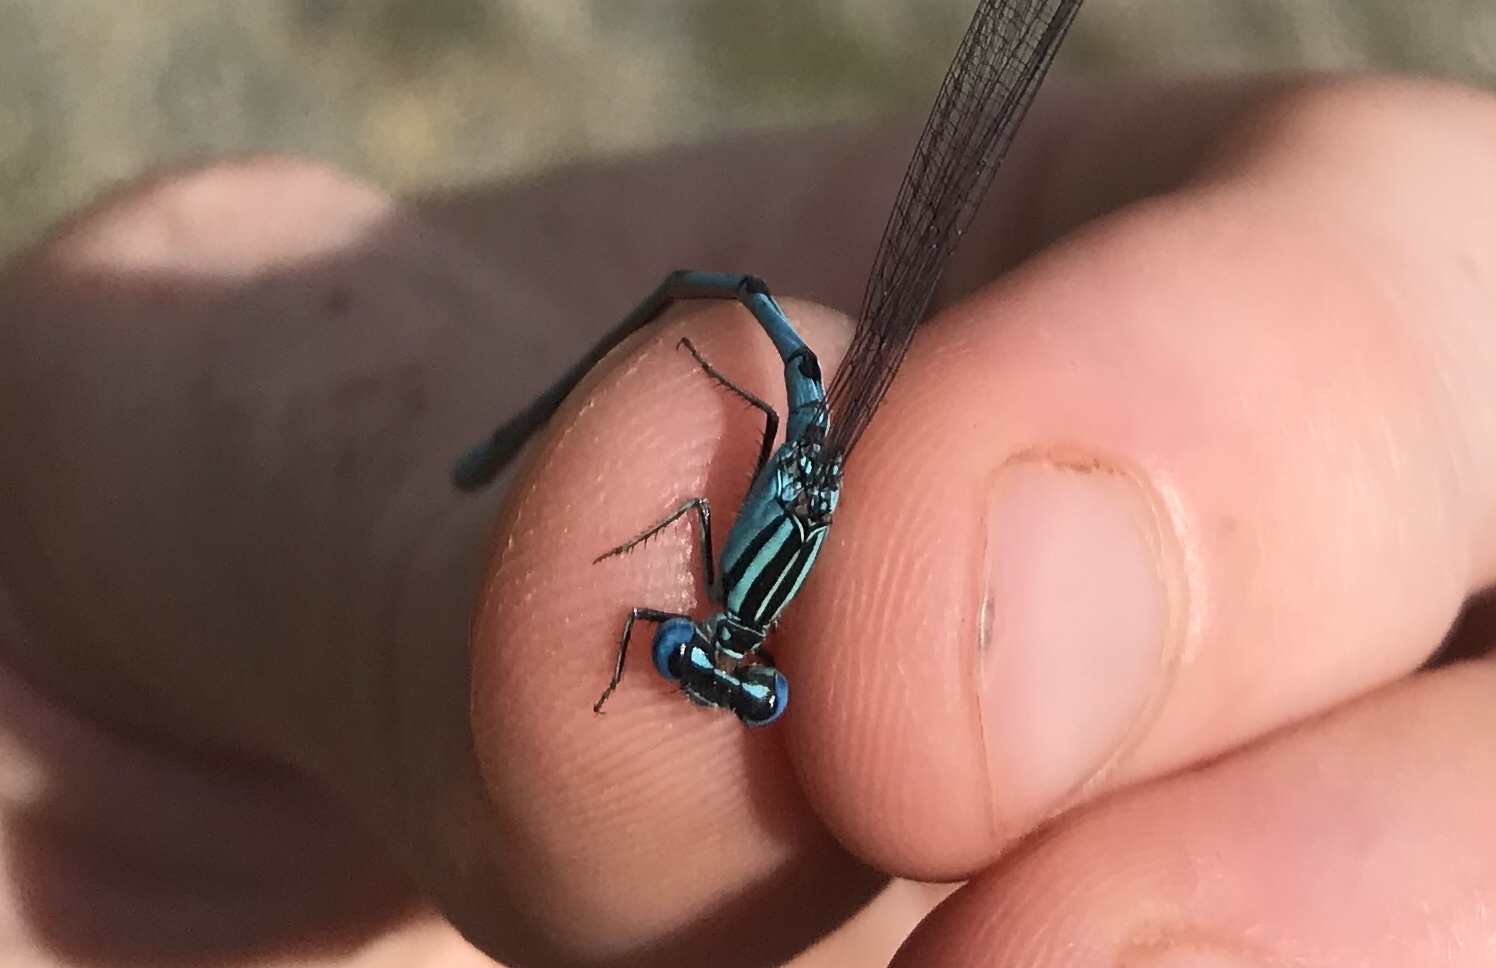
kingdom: Animalia
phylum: Arthropoda
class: Insecta
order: Odonata
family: Coenagrionidae
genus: Enallagma
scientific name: Enallagma durum
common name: Big bluet
